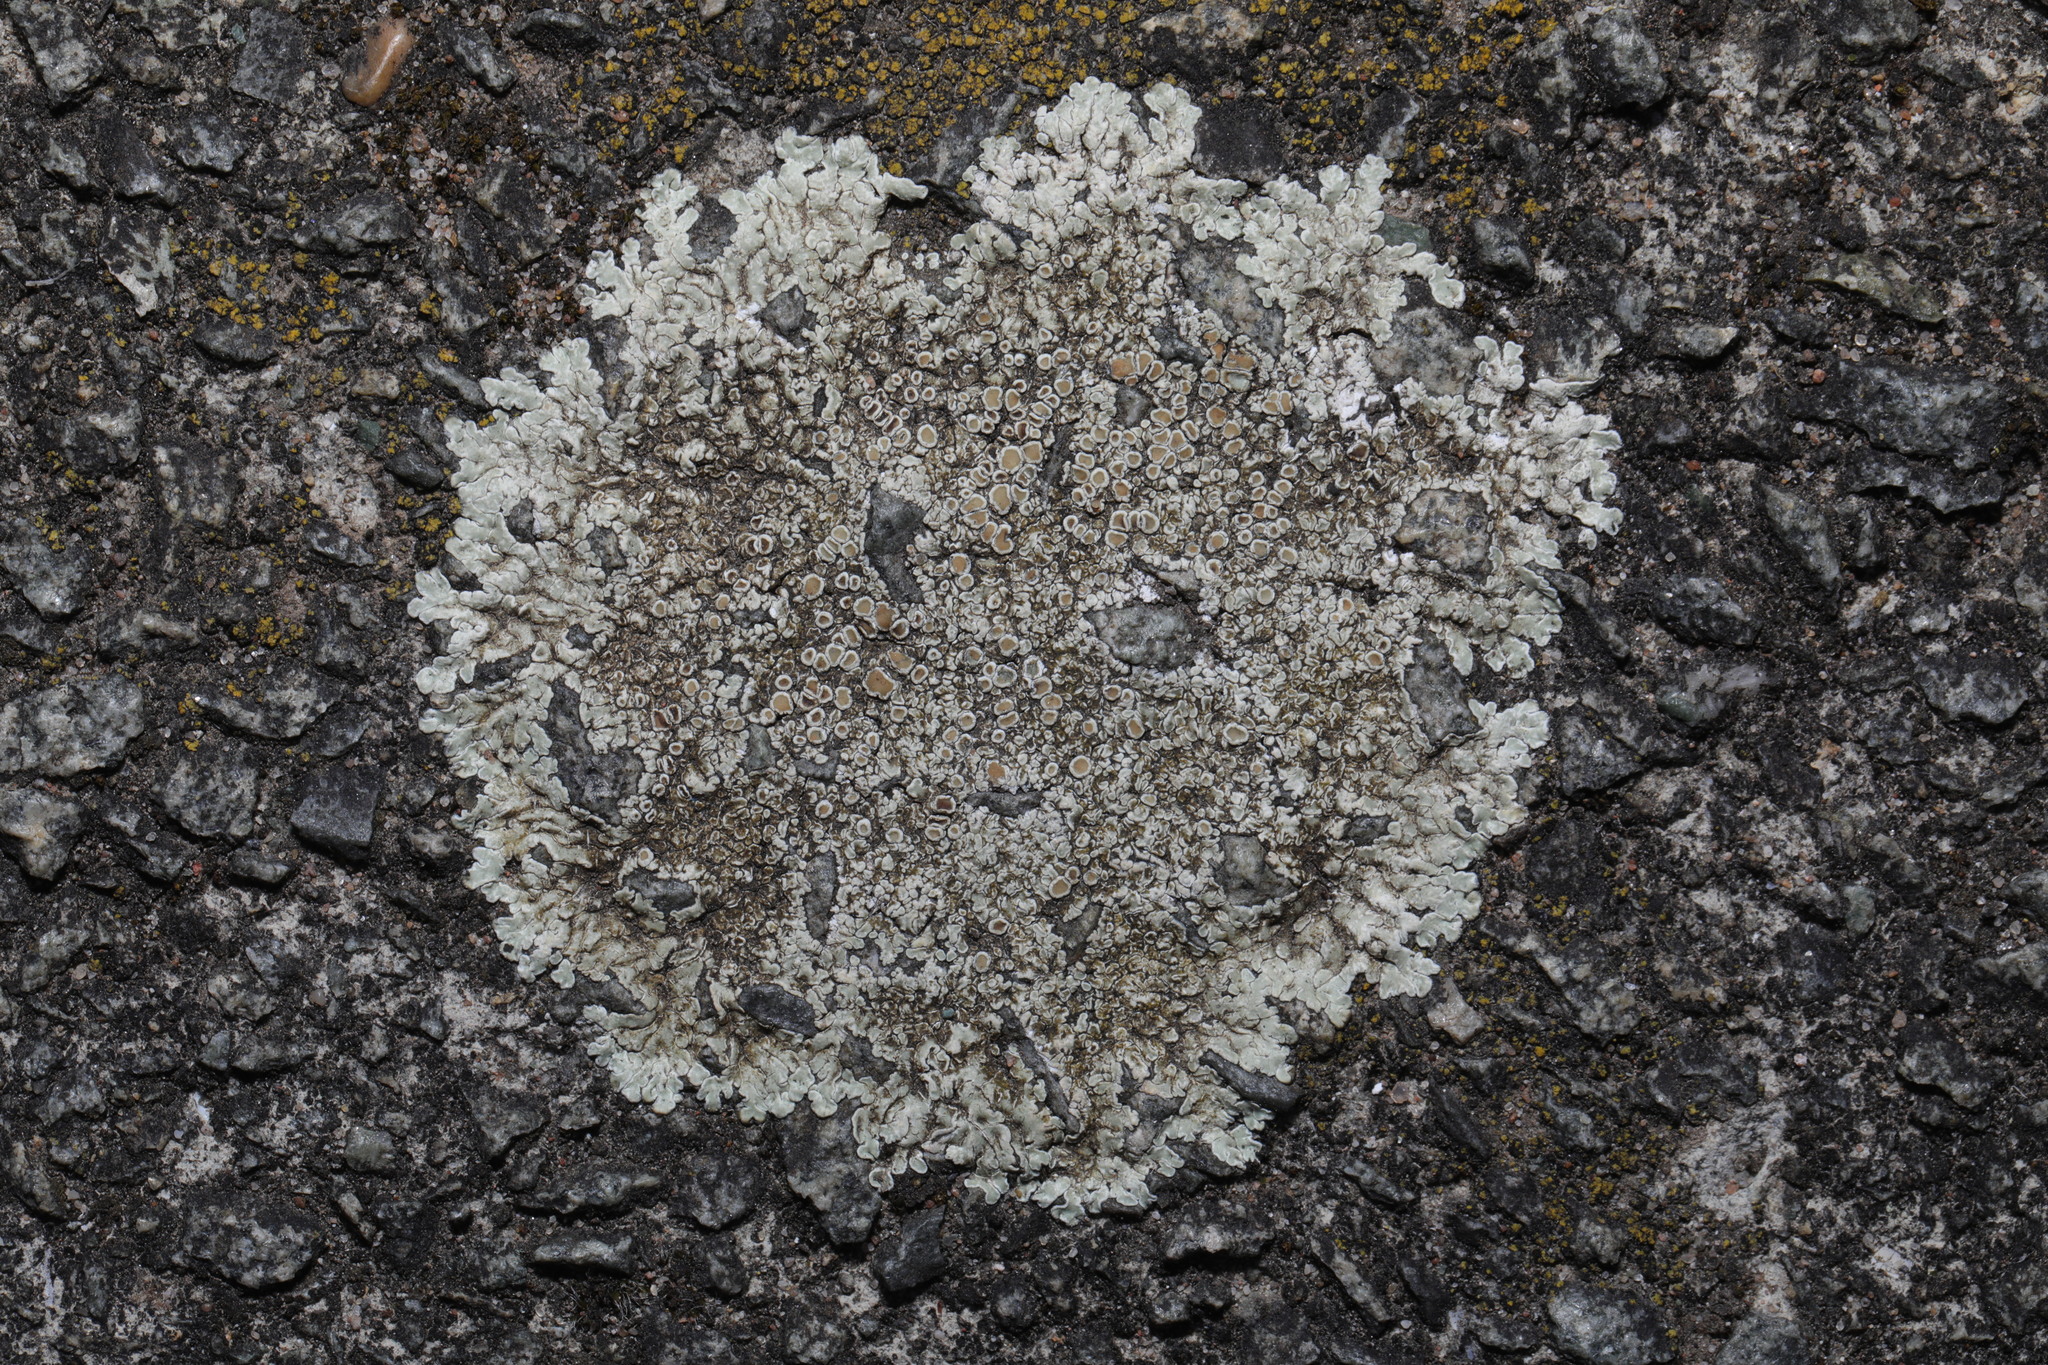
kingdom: Fungi
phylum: Ascomycota
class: Lecanoromycetes
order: Lecanorales
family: Lecanoraceae
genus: Protoparmeliopsis
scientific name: Protoparmeliopsis muralis
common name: Stonewall rim lichen
